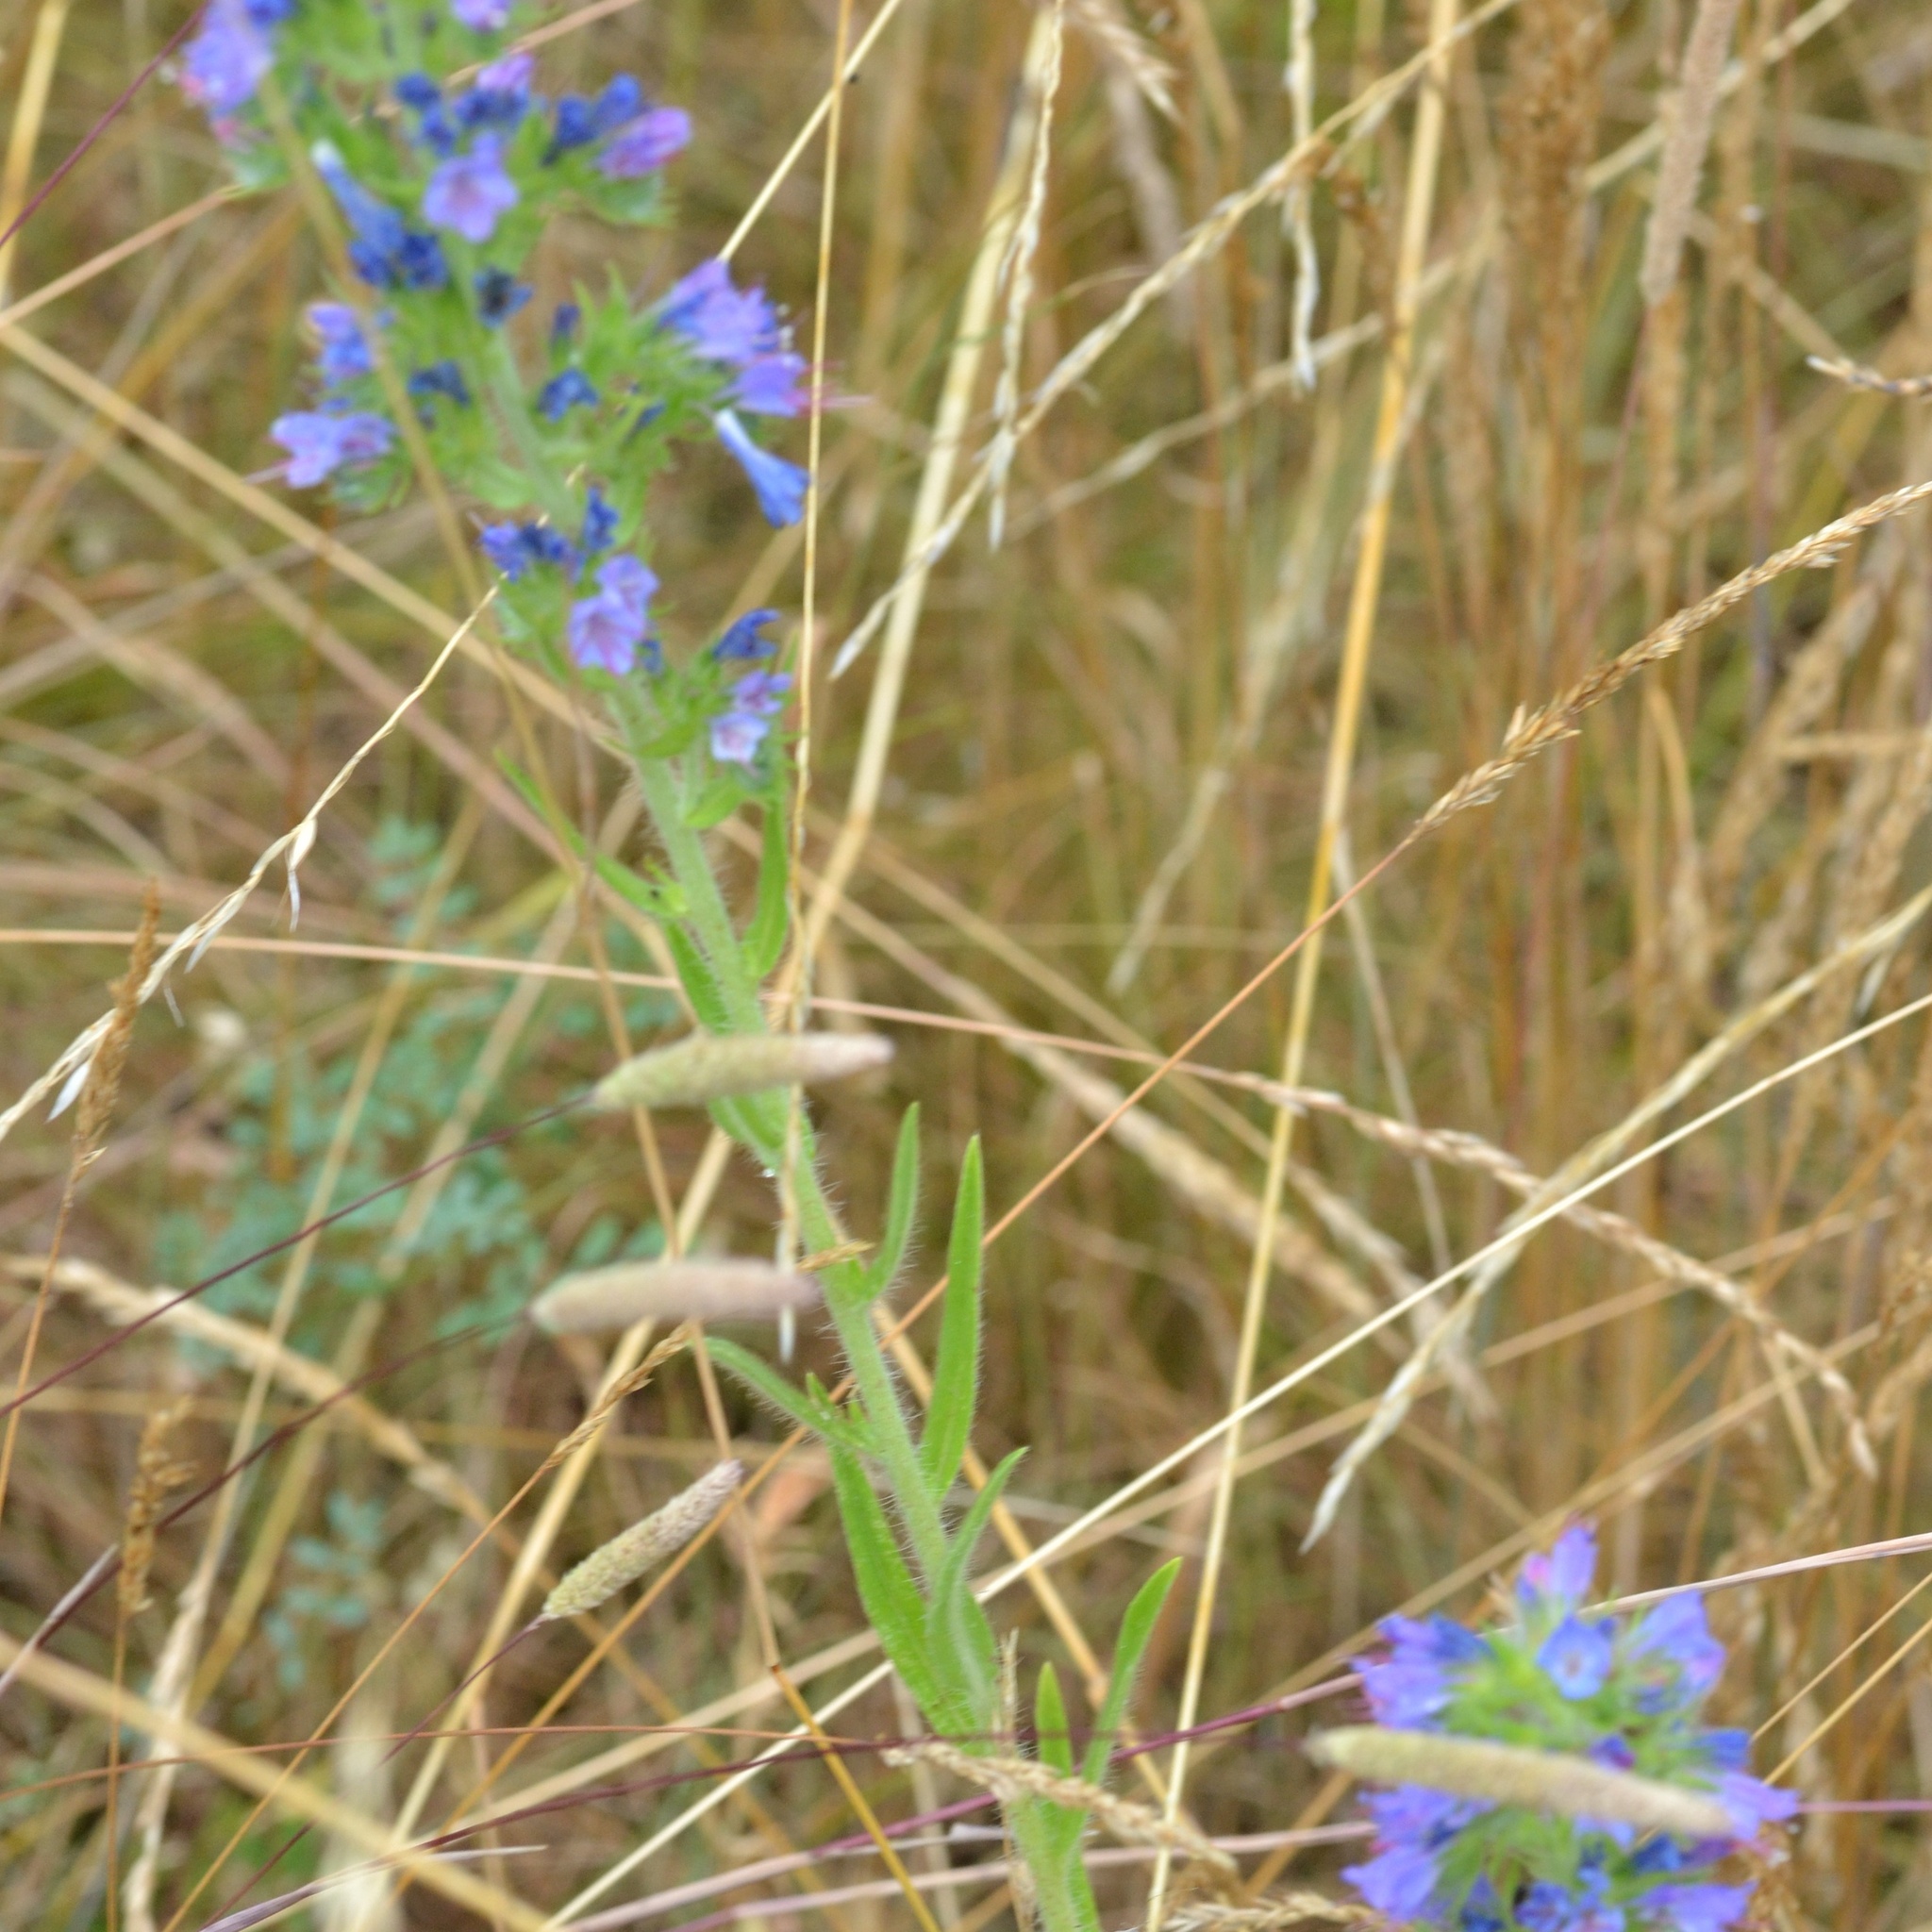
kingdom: Plantae
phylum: Tracheophyta
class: Magnoliopsida
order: Boraginales
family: Boraginaceae
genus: Echium
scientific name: Echium vulgare
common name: Common viper's bugloss
